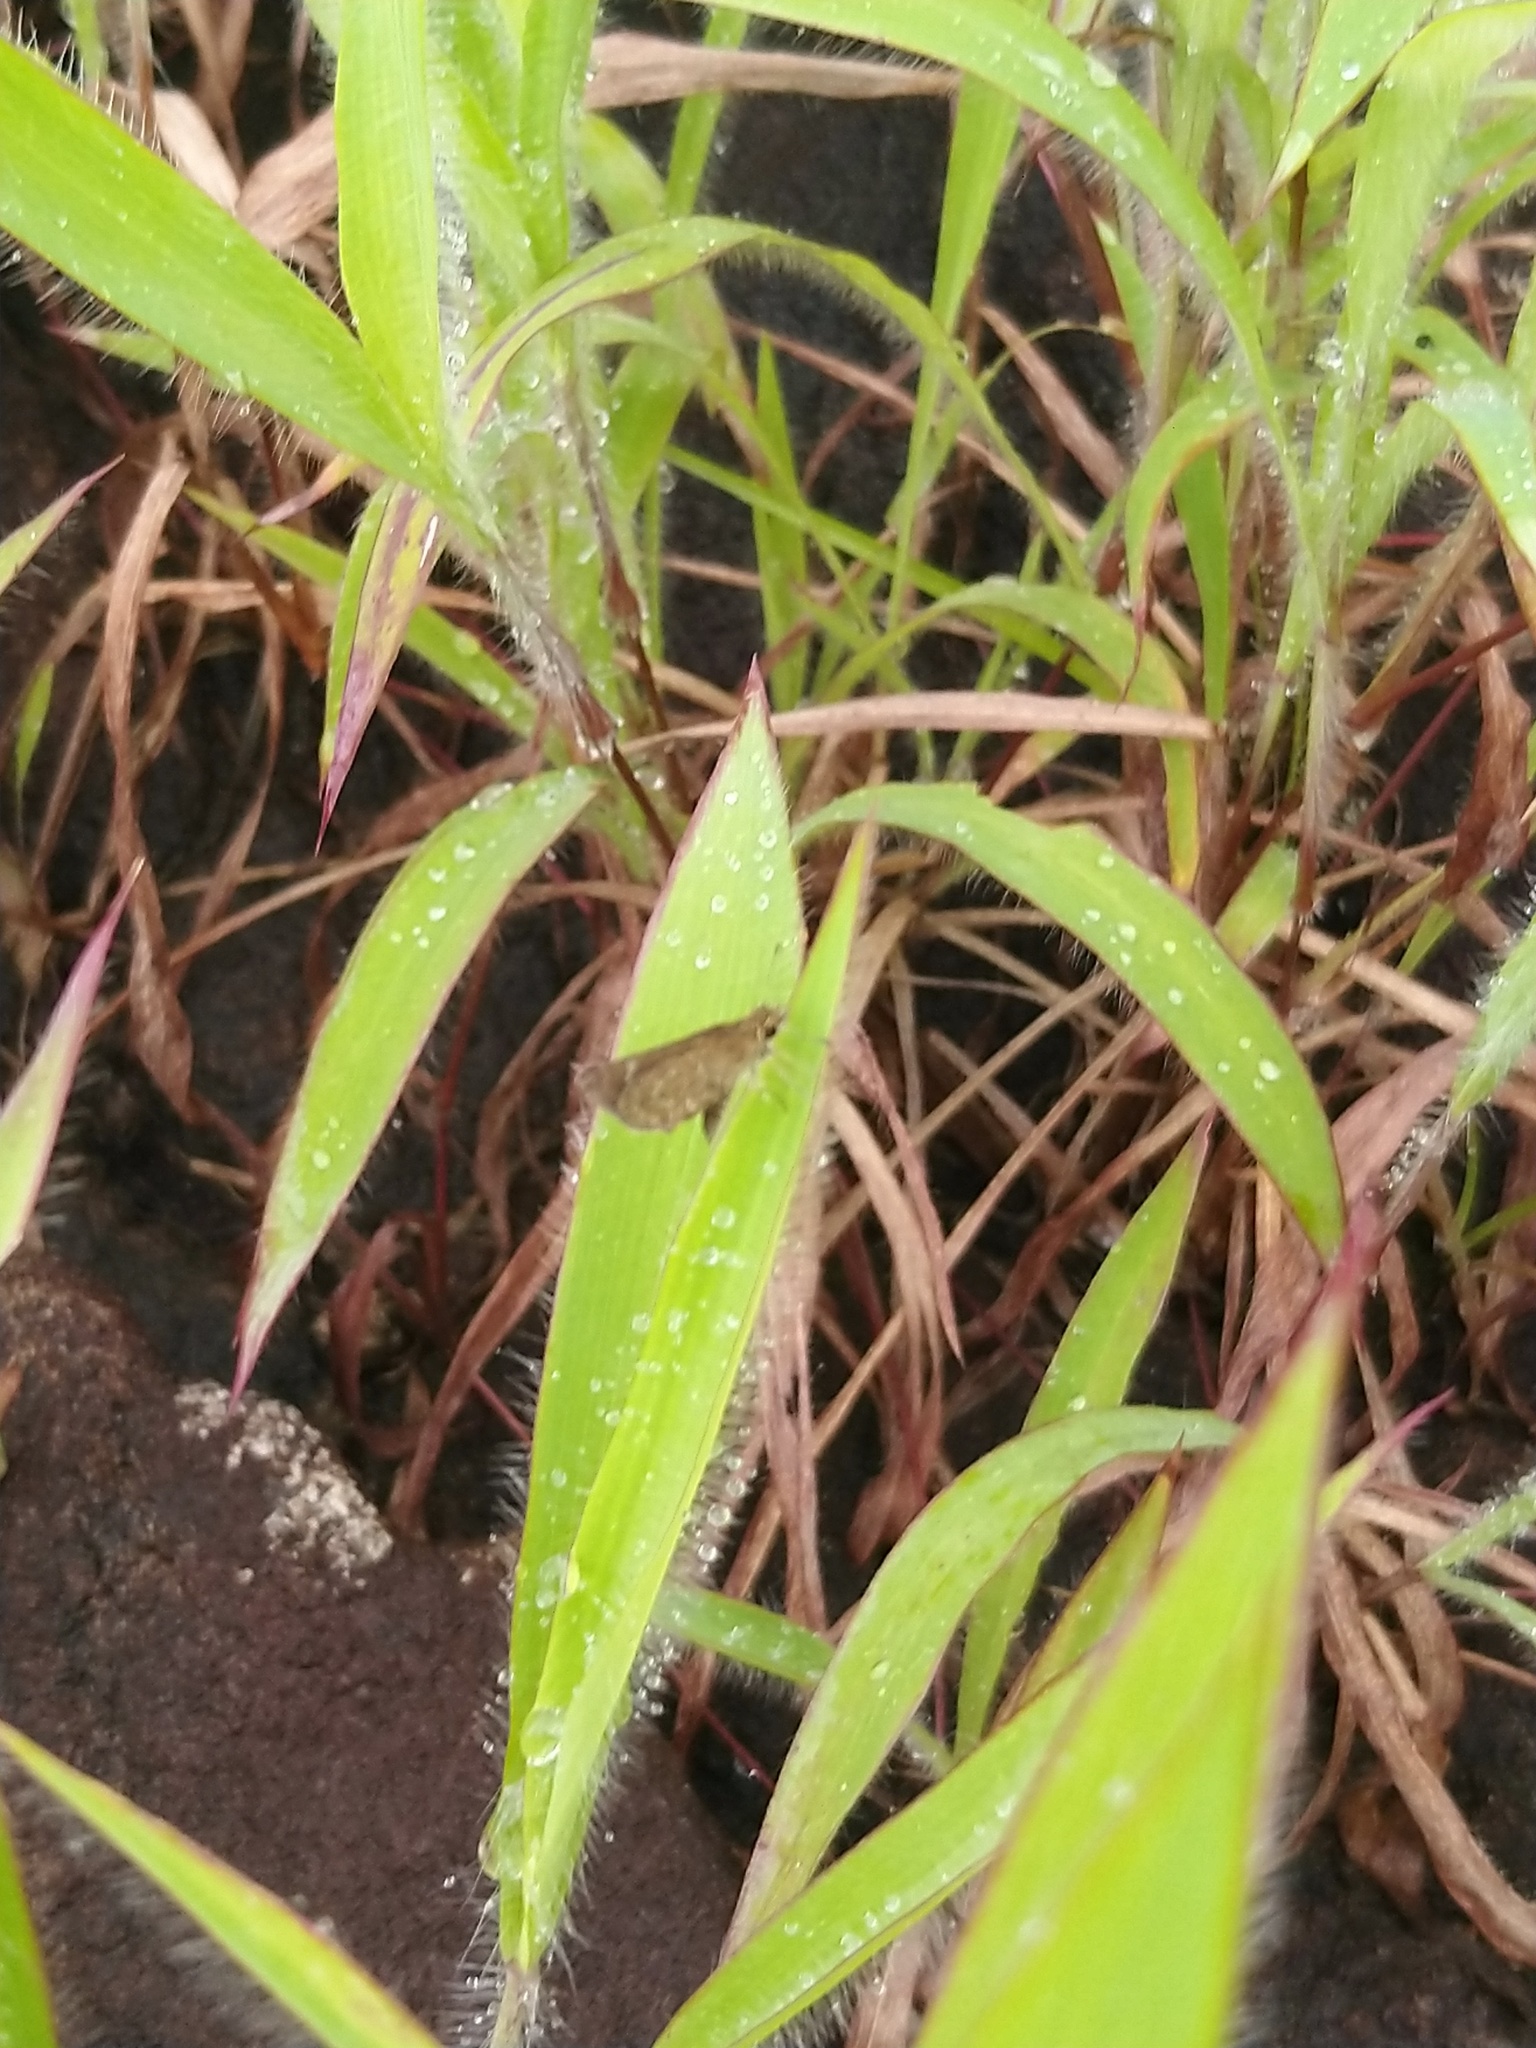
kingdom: Animalia
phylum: Arthropoda
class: Insecta
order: Lepidoptera
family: Hesperiidae
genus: Aeromachus
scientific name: Aeromachus pygmaeus
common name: Pygmy scrub hopper
